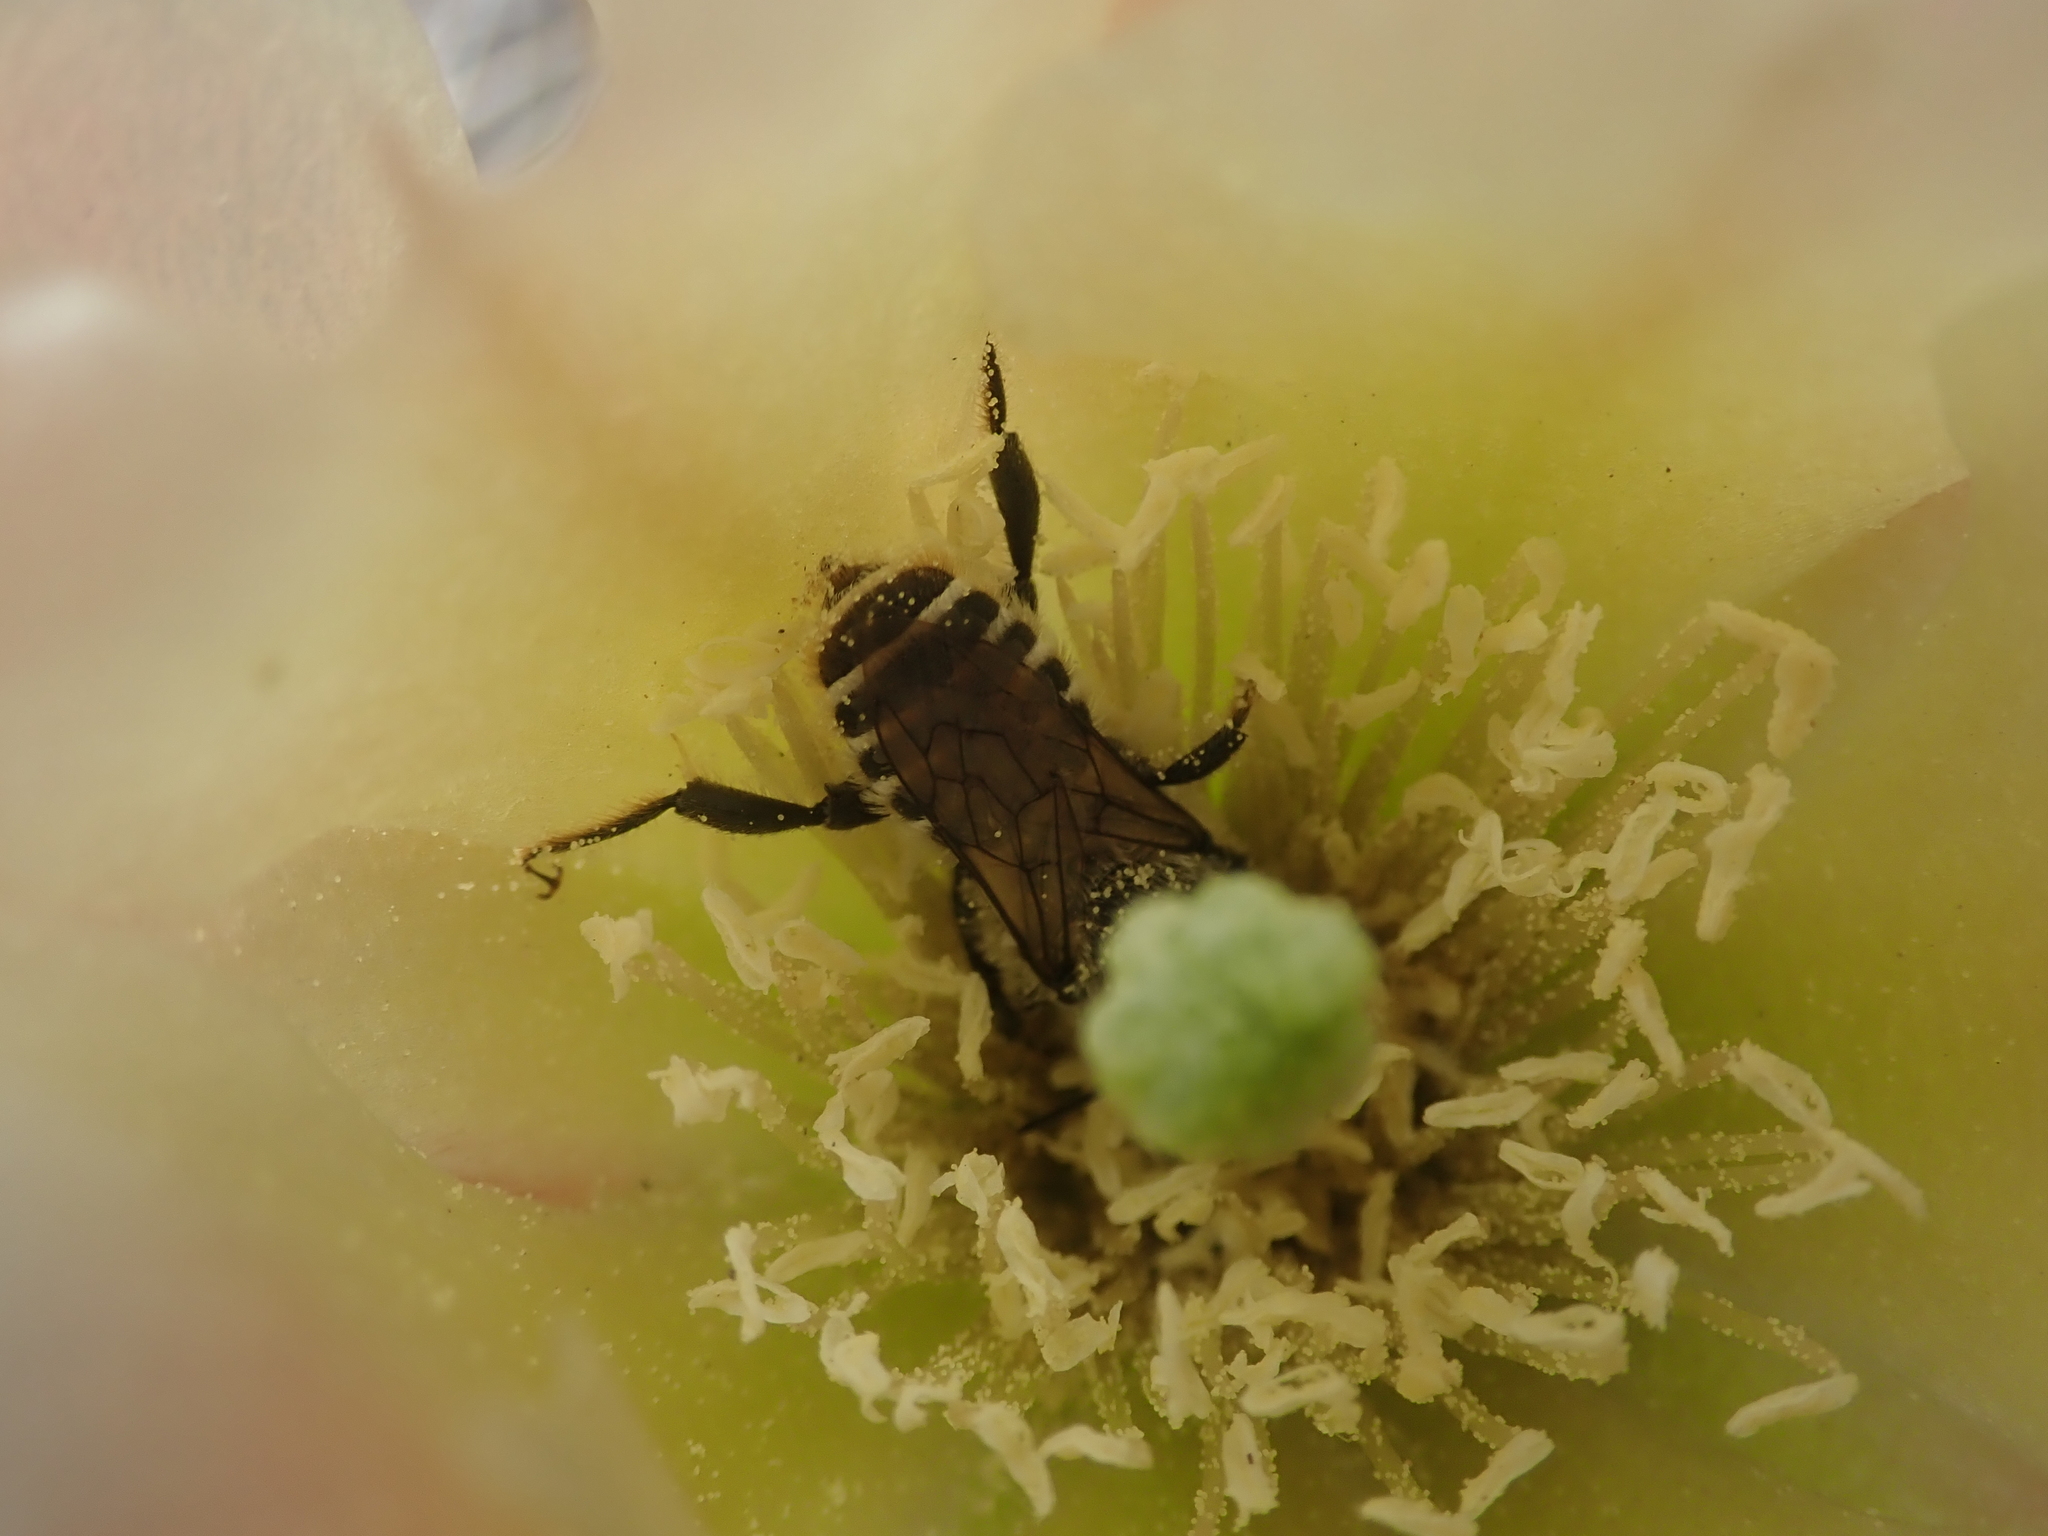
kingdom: Animalia
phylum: Arthropoda
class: Insecta
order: Hymenoptera
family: Megachilidae
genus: Lithurgopsis
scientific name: Lithurgopsis apicalis
